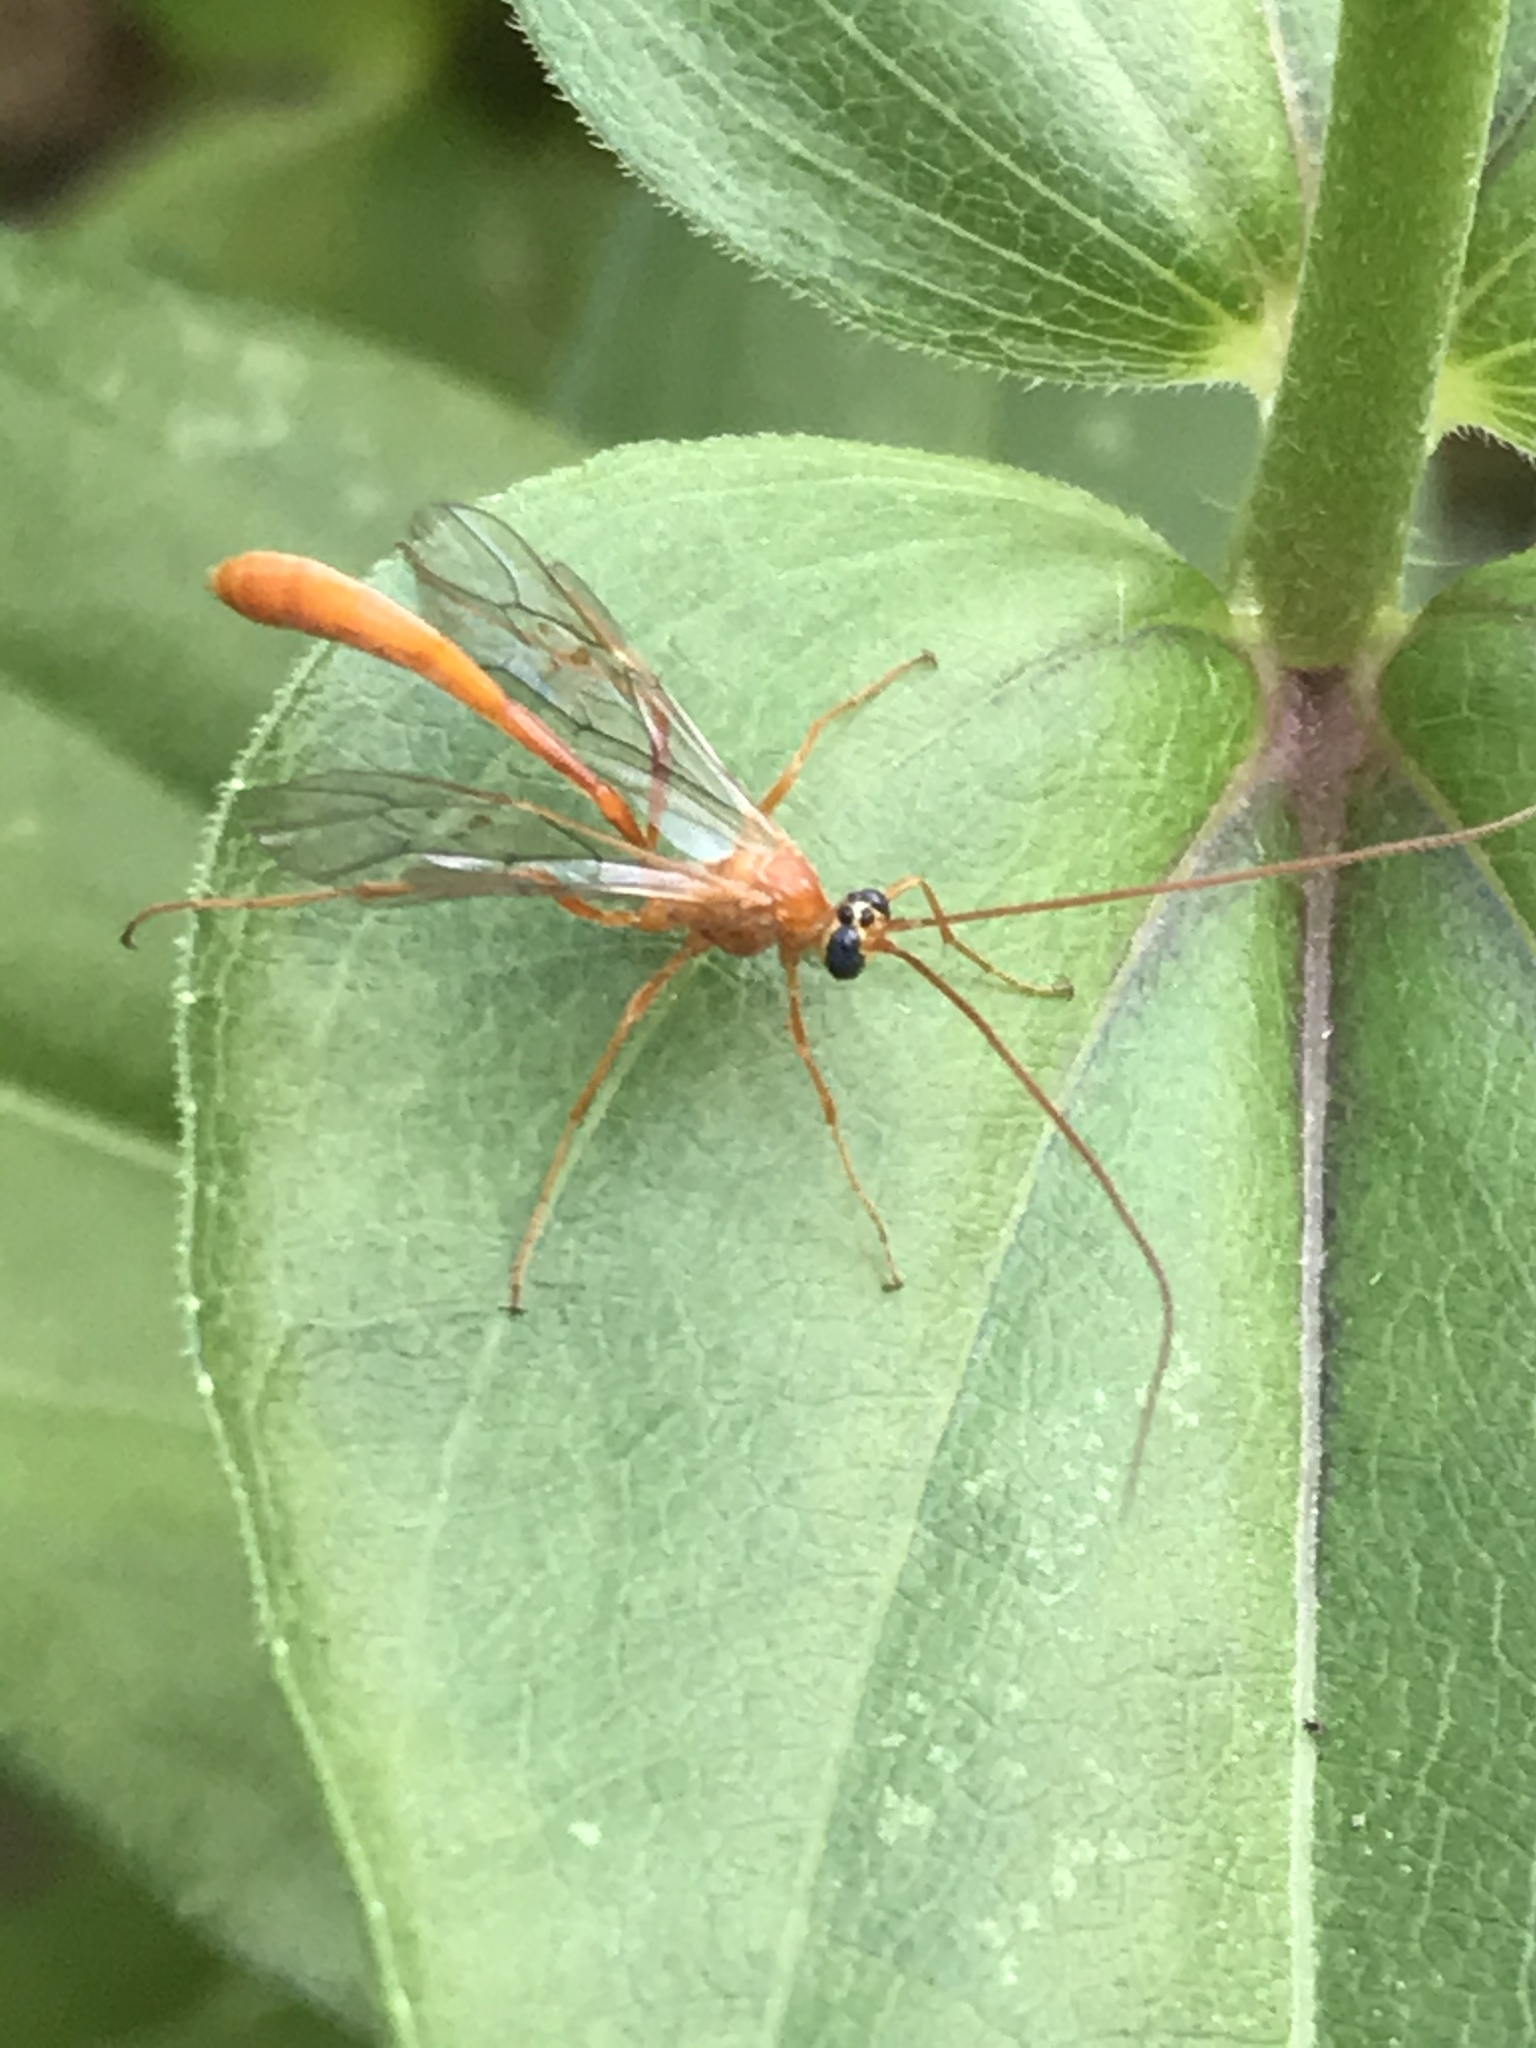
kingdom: Animalia
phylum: Arthropoda
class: Insecta
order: Hymenoptera
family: Ichneumonidae
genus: Enicospilus
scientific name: Enicospilus purgatus
